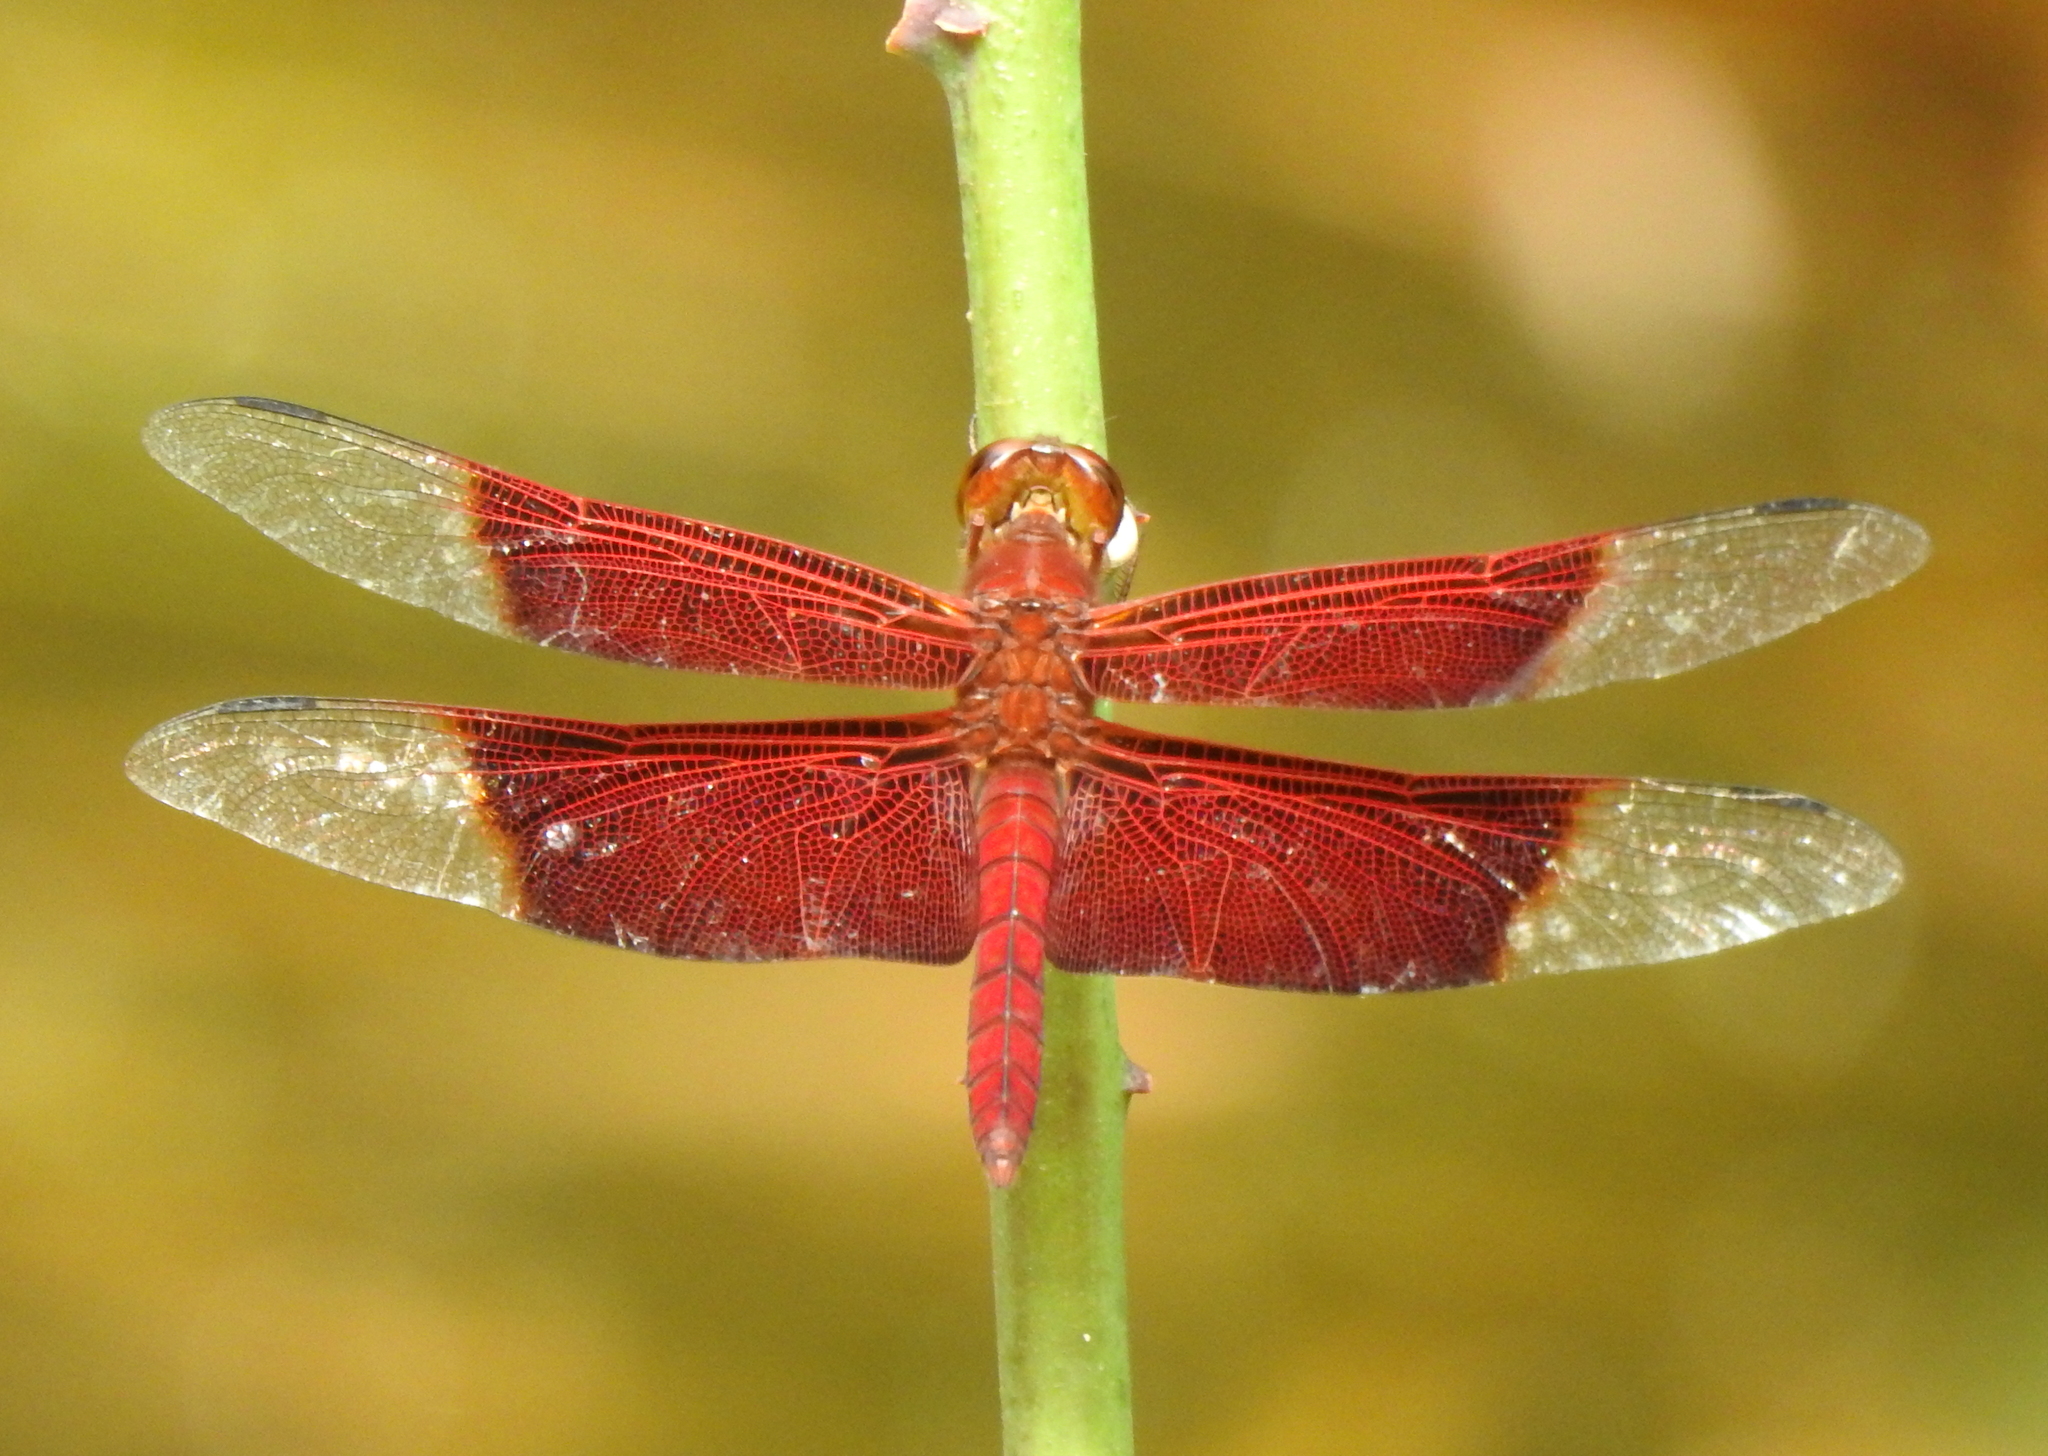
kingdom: Animalia
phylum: Arthropoda
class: Insecta
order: Odonata
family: Libellulidae
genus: Camacinia
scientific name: Camacinia gigantea
